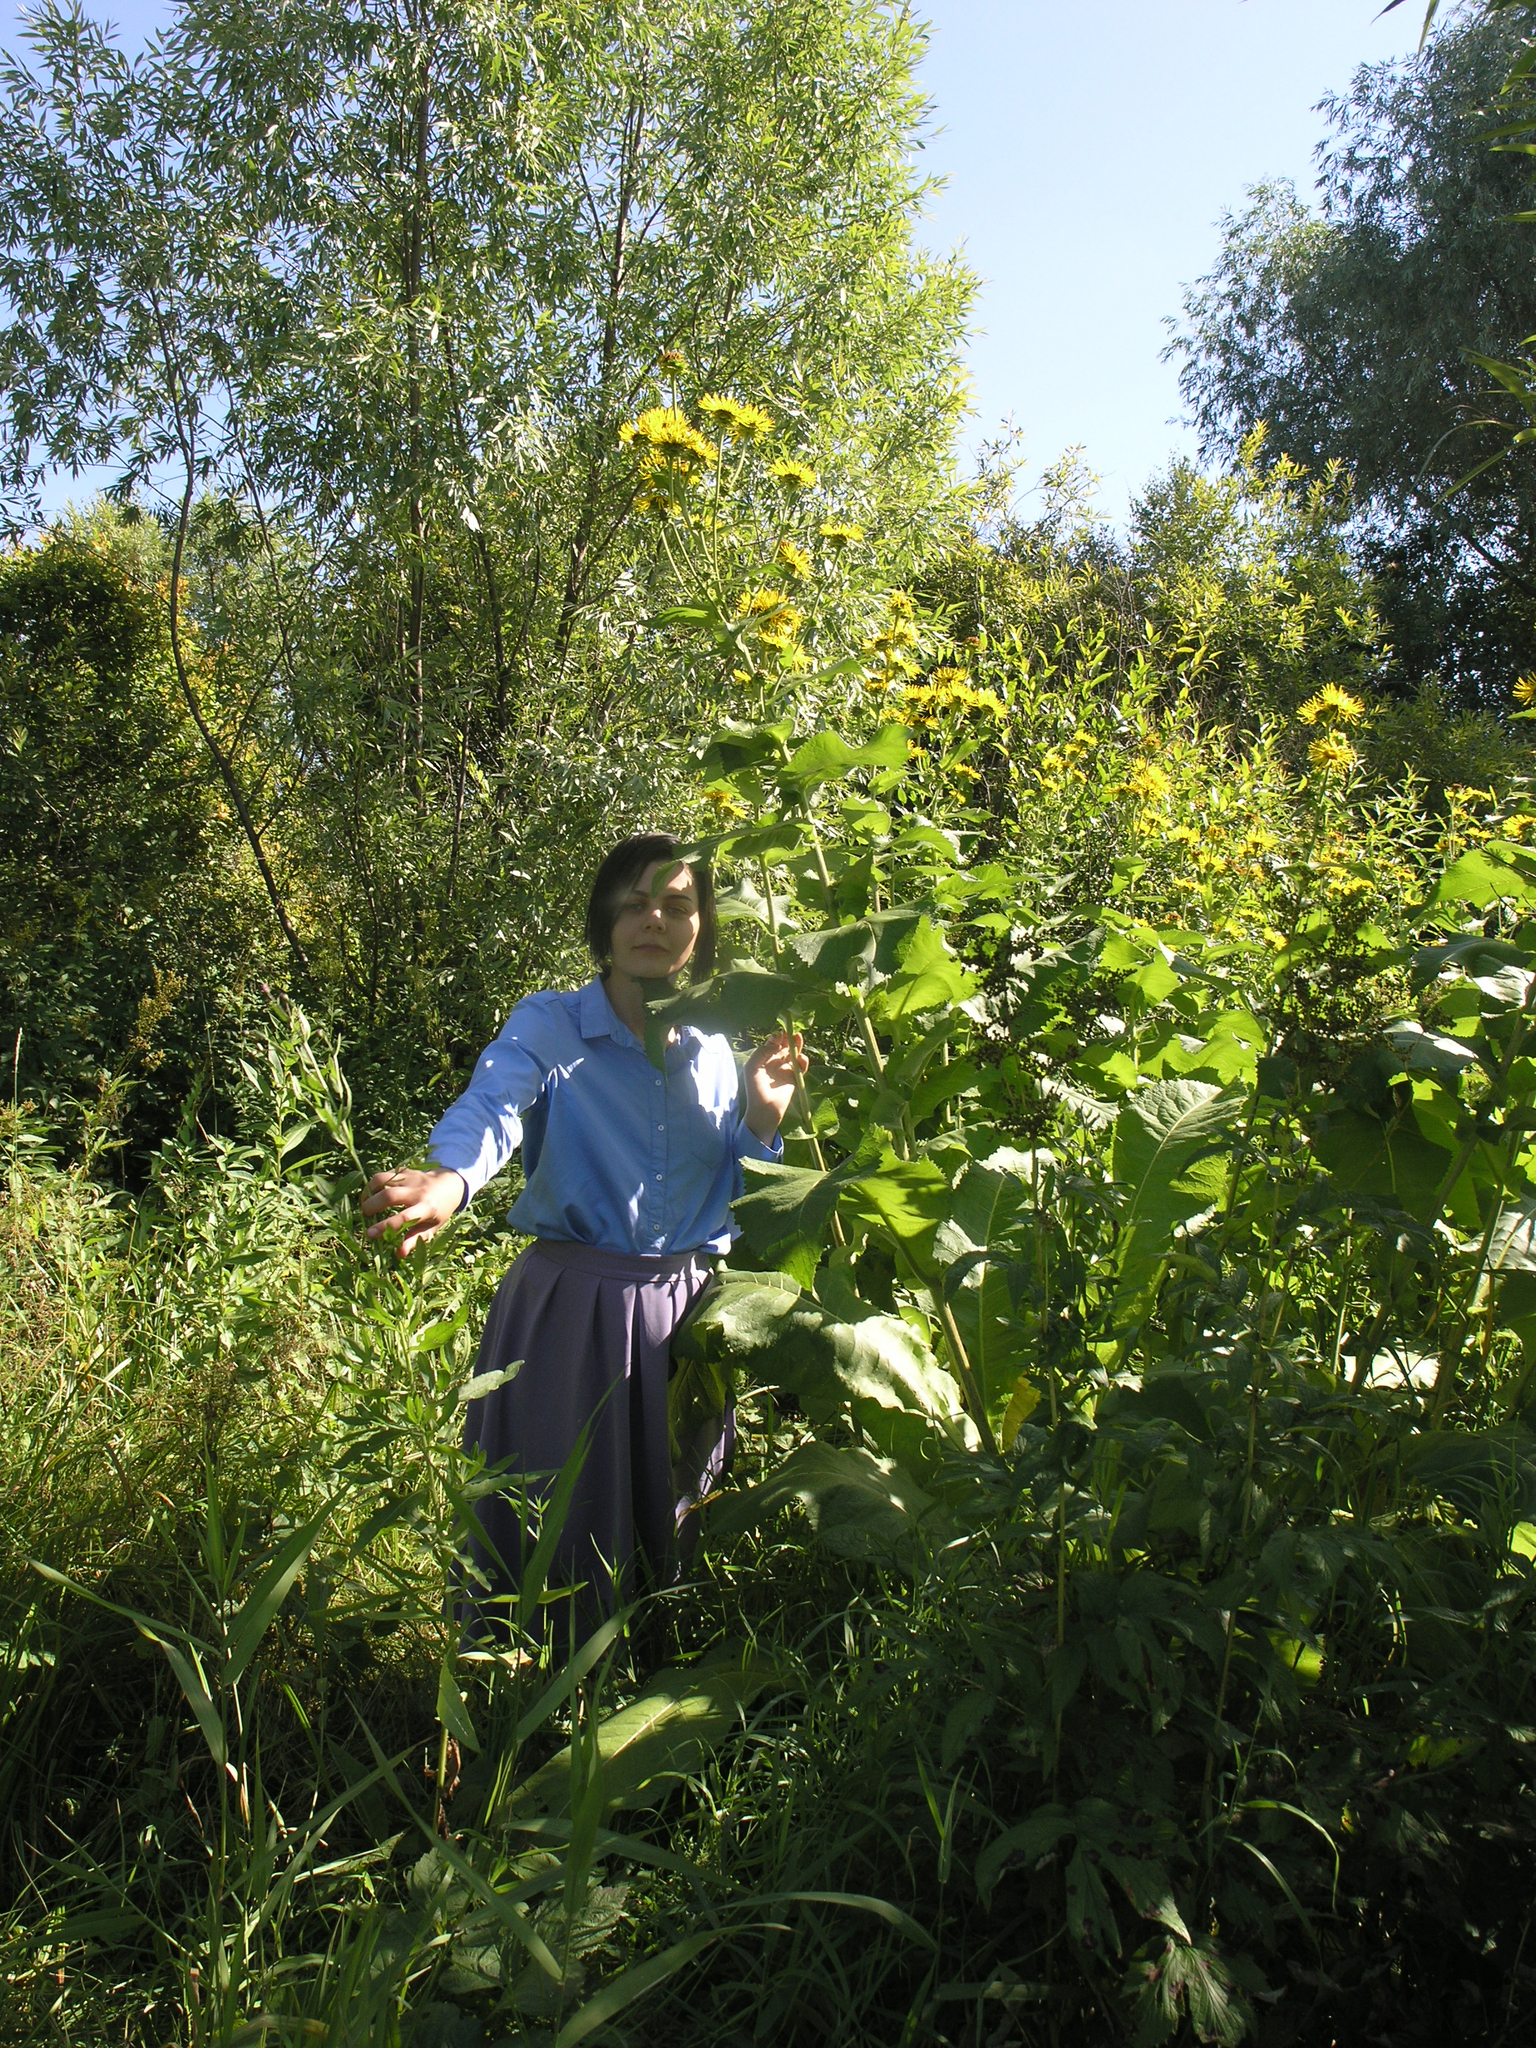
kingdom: Plantae
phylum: Tracheophyta
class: Magnoliopsida
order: Asterales
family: Asteraceae
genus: Inula
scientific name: Inula helenium
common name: Elecampane
